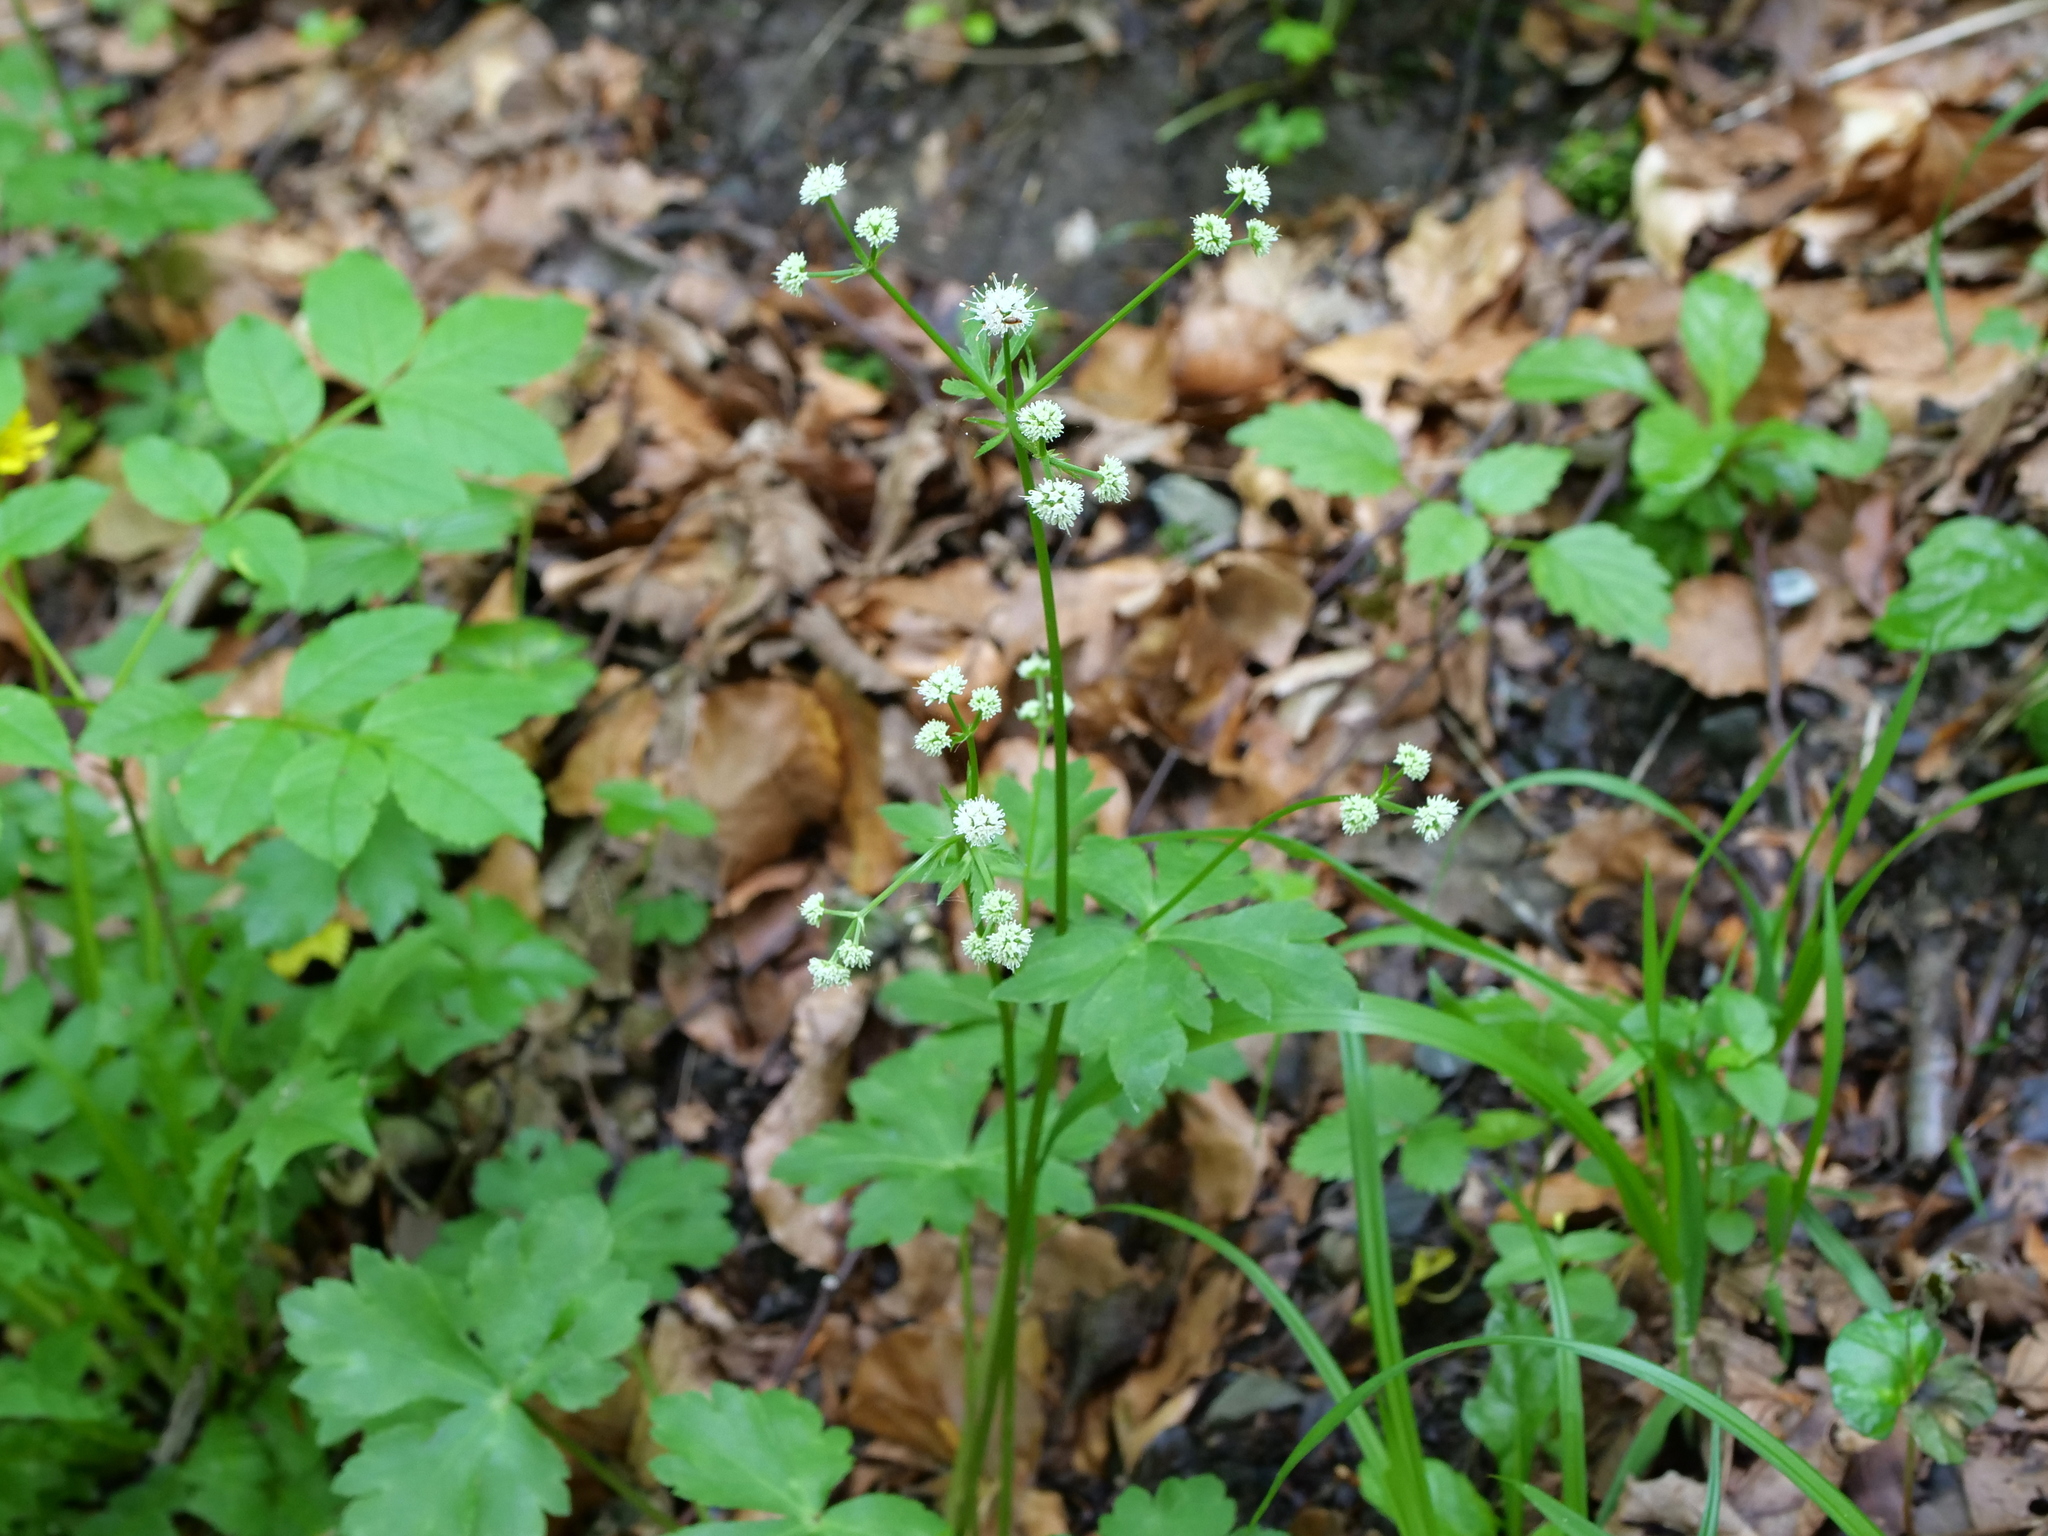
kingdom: Plantae
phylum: Tracheophyta
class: Magnoliopsida
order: Apiales
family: Apiaceae
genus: Sanicula
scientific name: Sanicula europaea
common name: Sanicle
